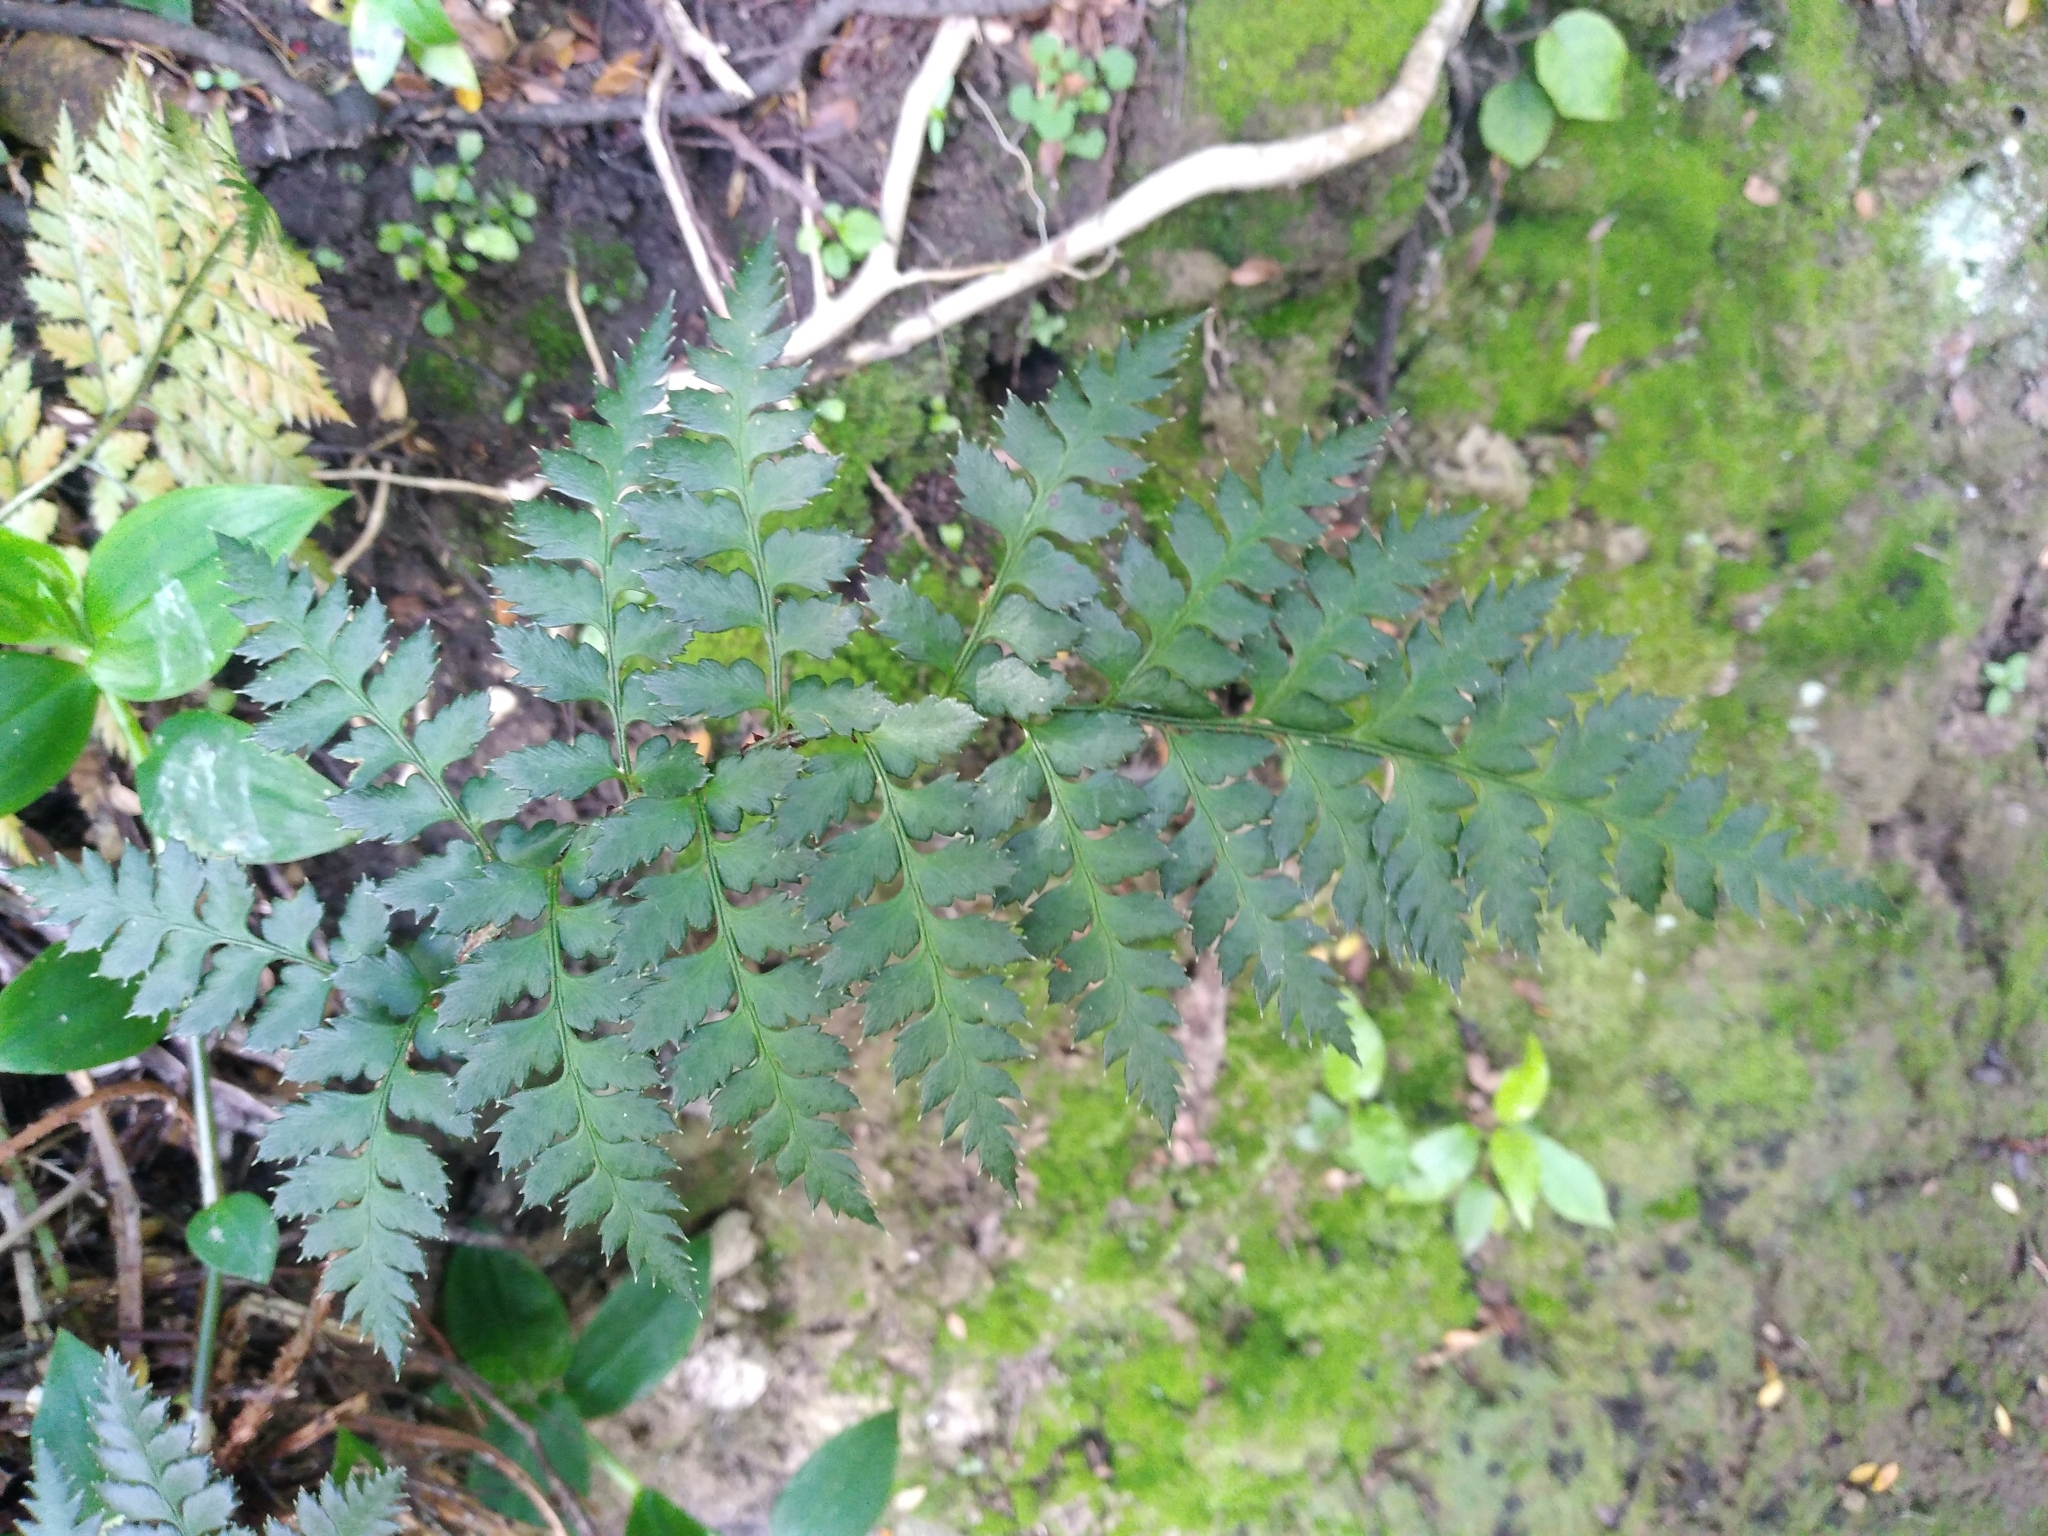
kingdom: Plantae
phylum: Tracheophyta
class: Polypodiopsida
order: Polypodiales
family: Dryopteridaceae
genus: Polystichum
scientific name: Polystichum oculatum
